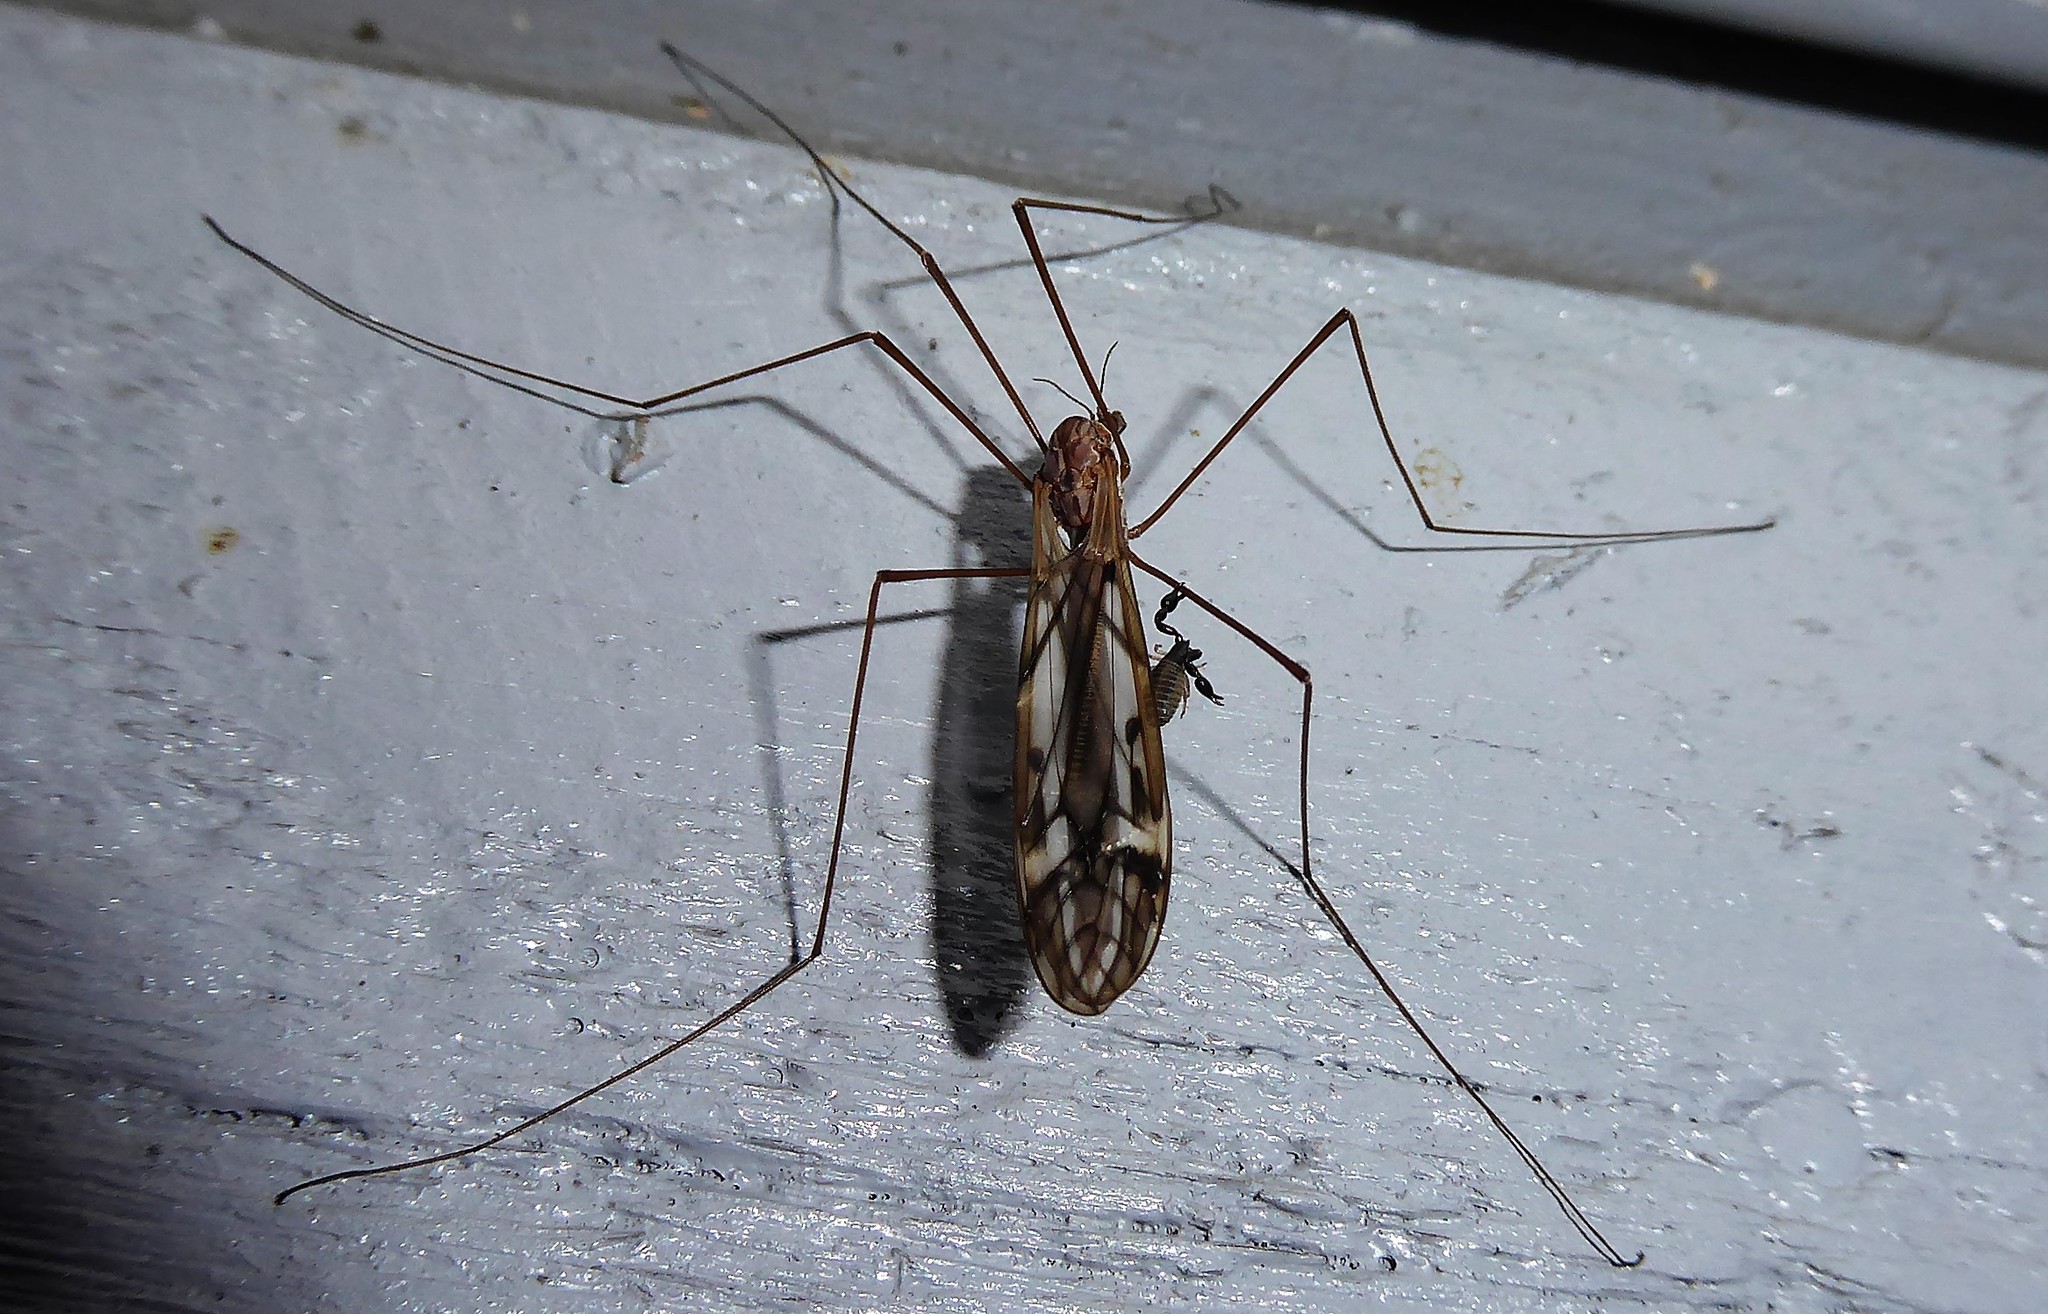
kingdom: Animalia
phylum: Arthropoda
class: Insecta
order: Diptera
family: Tipulidae
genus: Zelandotipula
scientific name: Zelandotipula novarae
